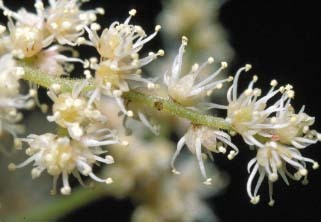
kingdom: Plantae
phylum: Tracheophyta
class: Magnoliopsida
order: Oxalidales
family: Cunoniaceae
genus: Ackama
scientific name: Ackama rosifolia
